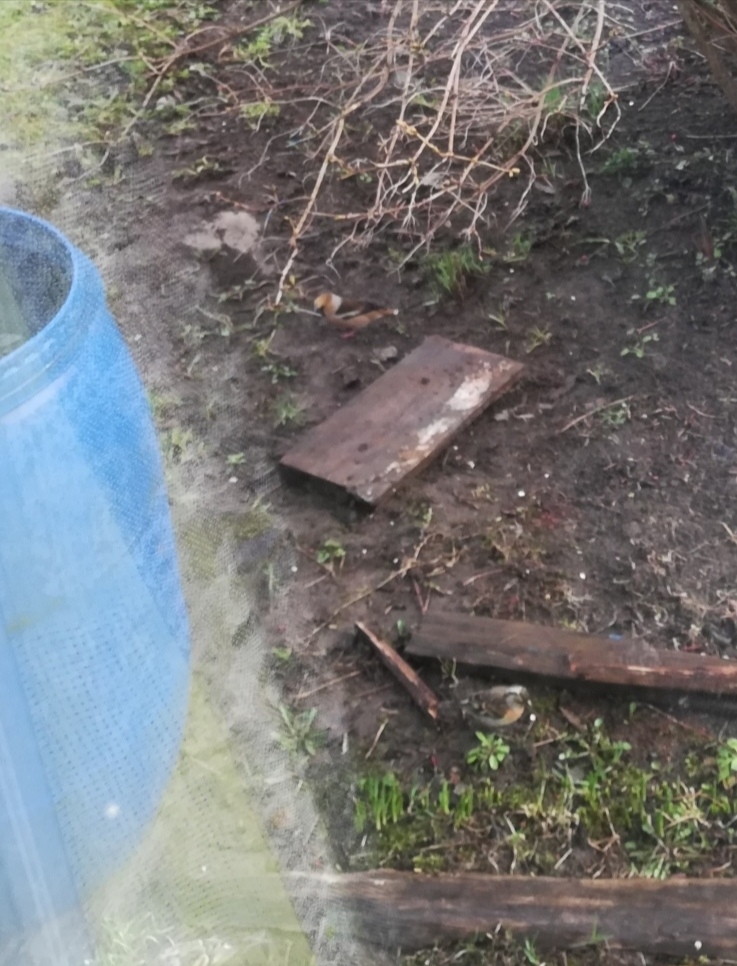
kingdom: Animalia
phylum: Chordata
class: Aves
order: Passeriformes
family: Fringillidae
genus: Fringilla
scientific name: Fringilla montifringilla
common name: Brambling
